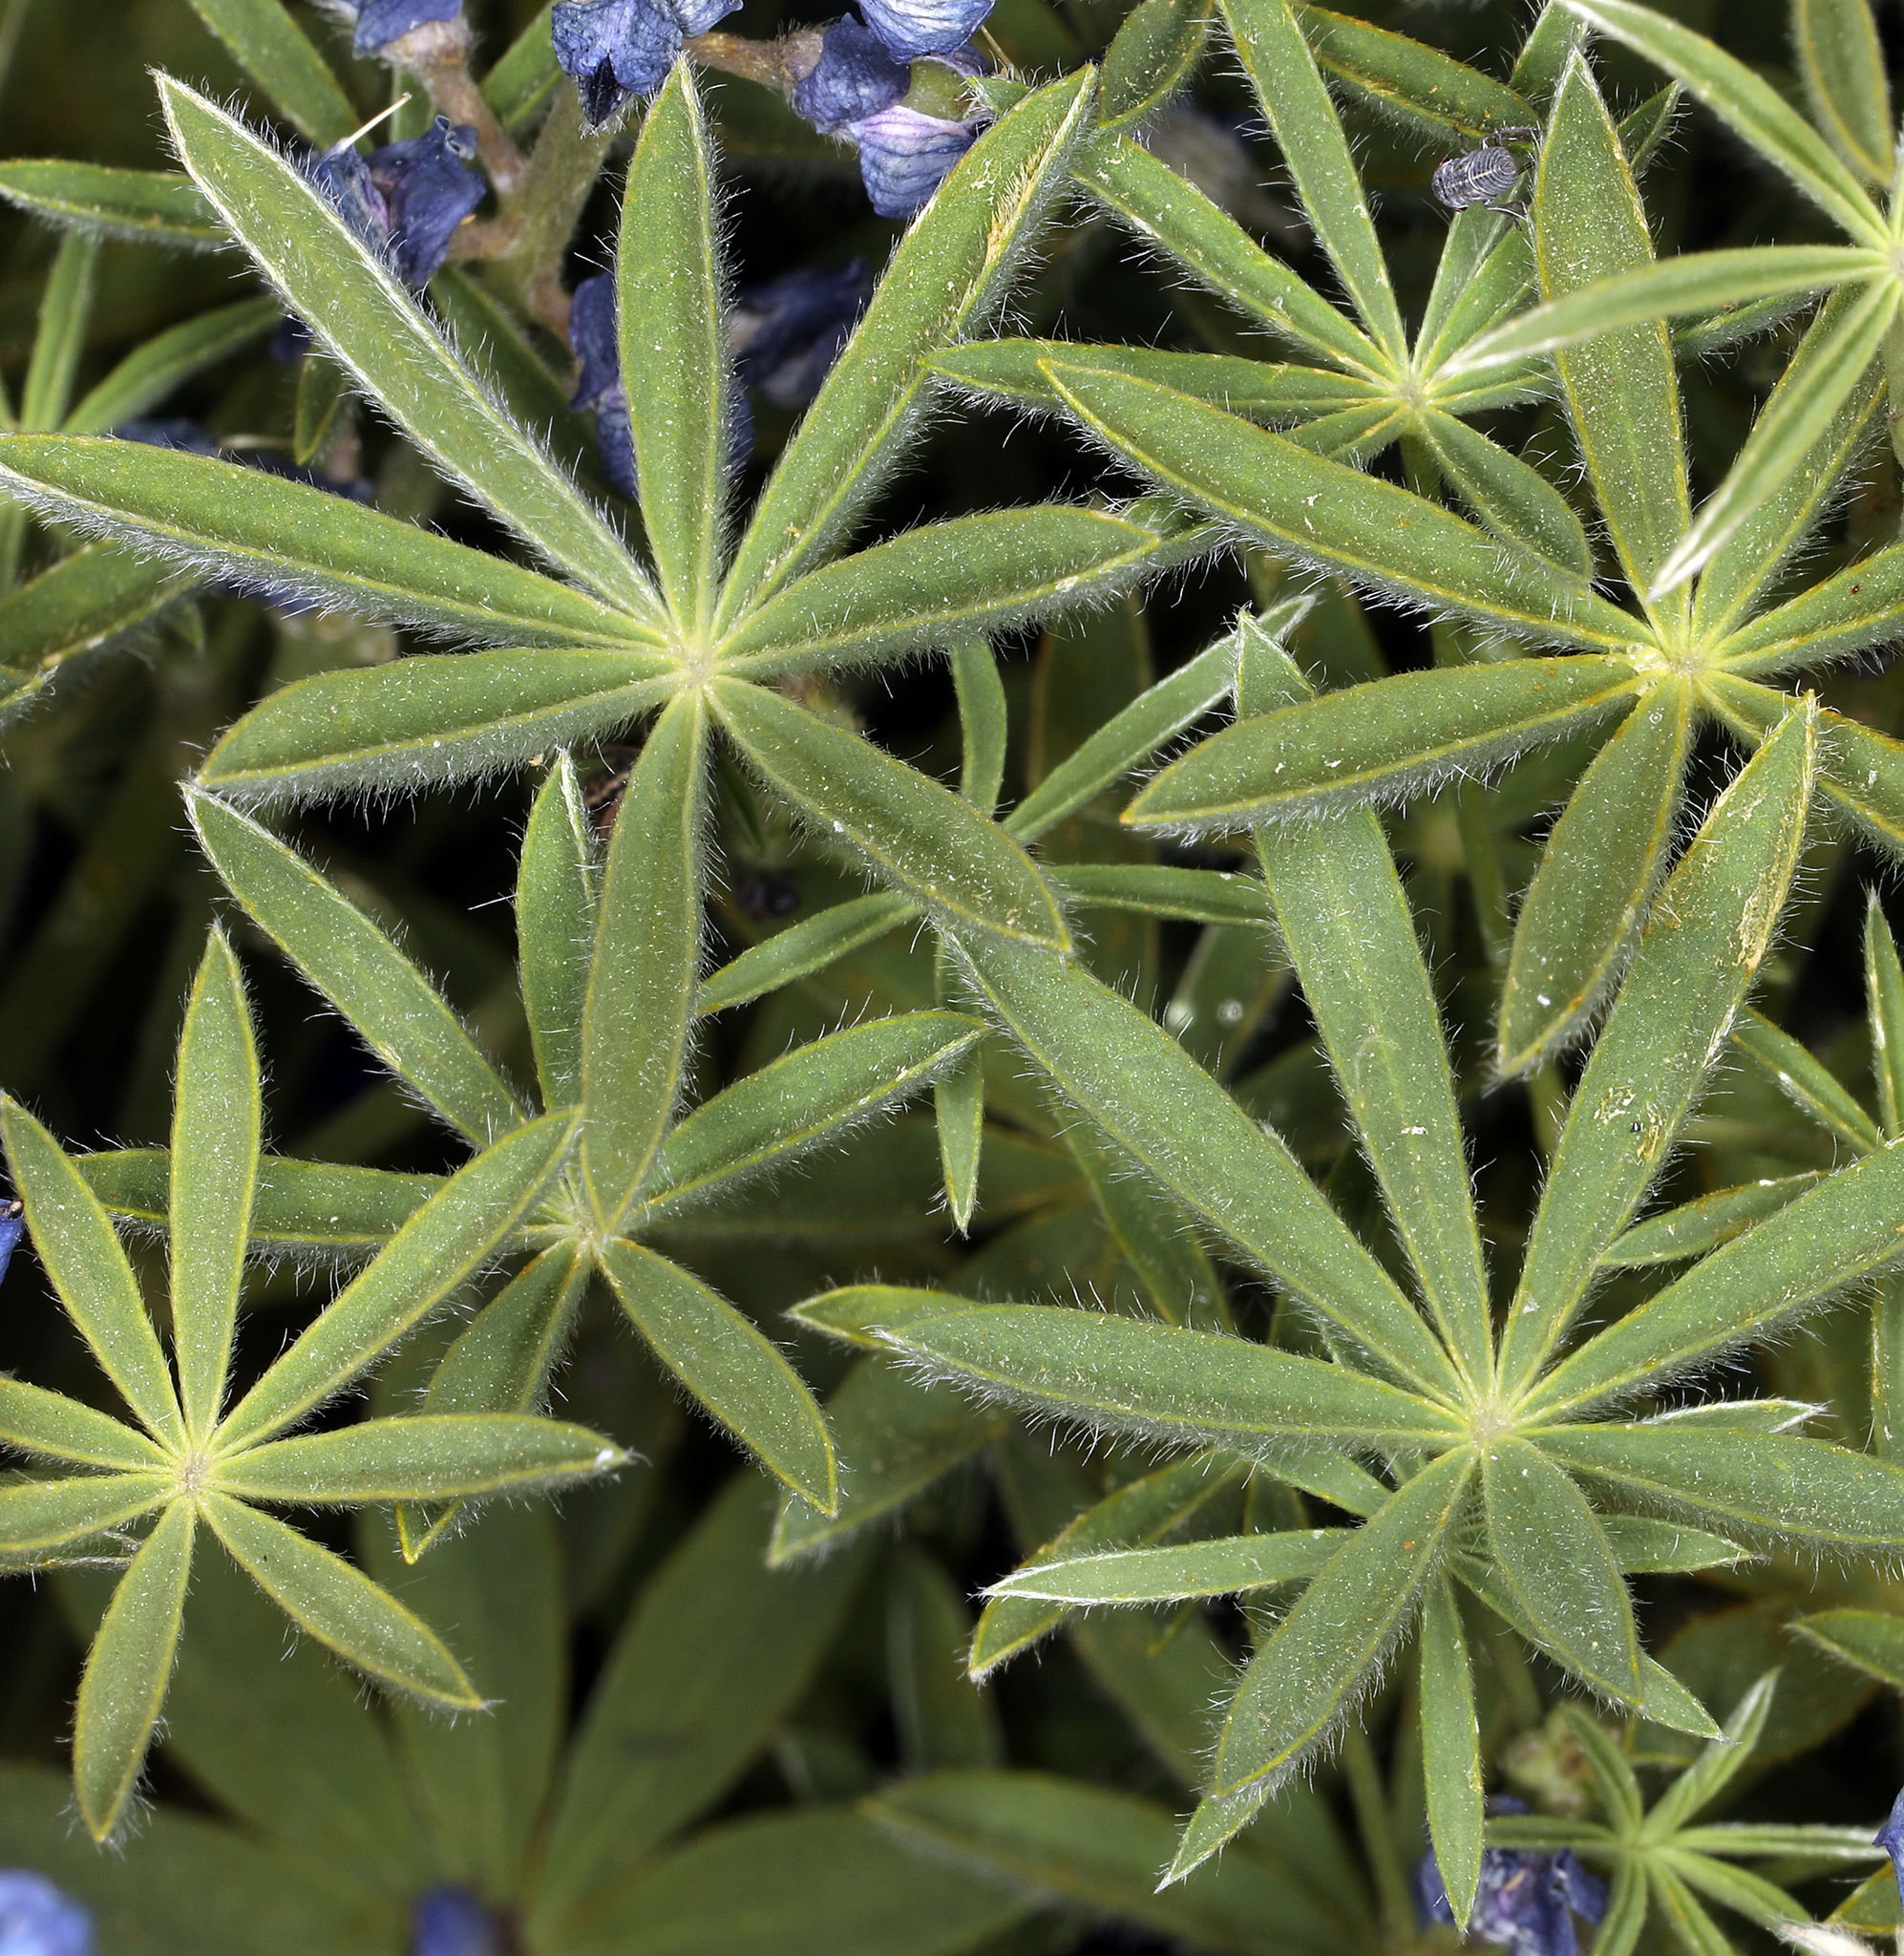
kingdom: Plantae
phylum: Tracheophyta
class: Magnoliopsida
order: Fabales
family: Fabaceae
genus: Lupinus
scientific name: Lupinus meionanthus
